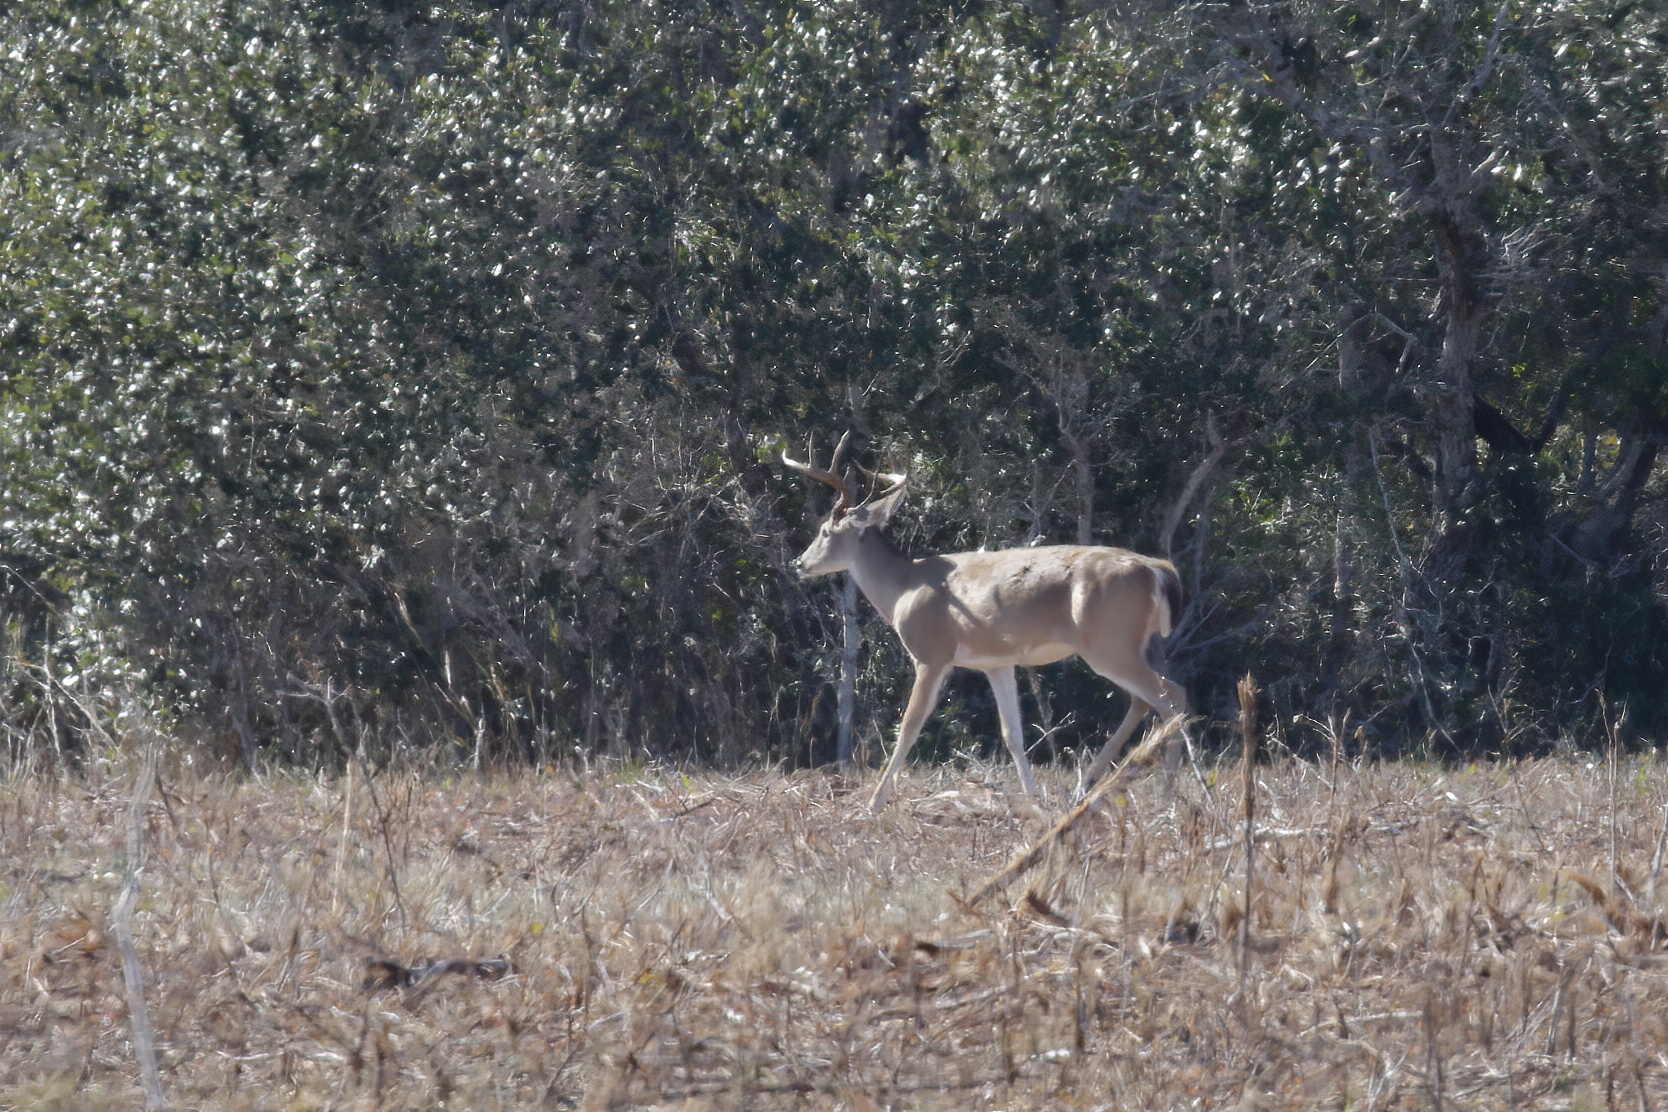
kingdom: Animalia
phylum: Chordata
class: Mammalia
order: Artiodactyla
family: Cervidae
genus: Odocoileus
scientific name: Odocoileus virginianus
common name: White-tailed deer
